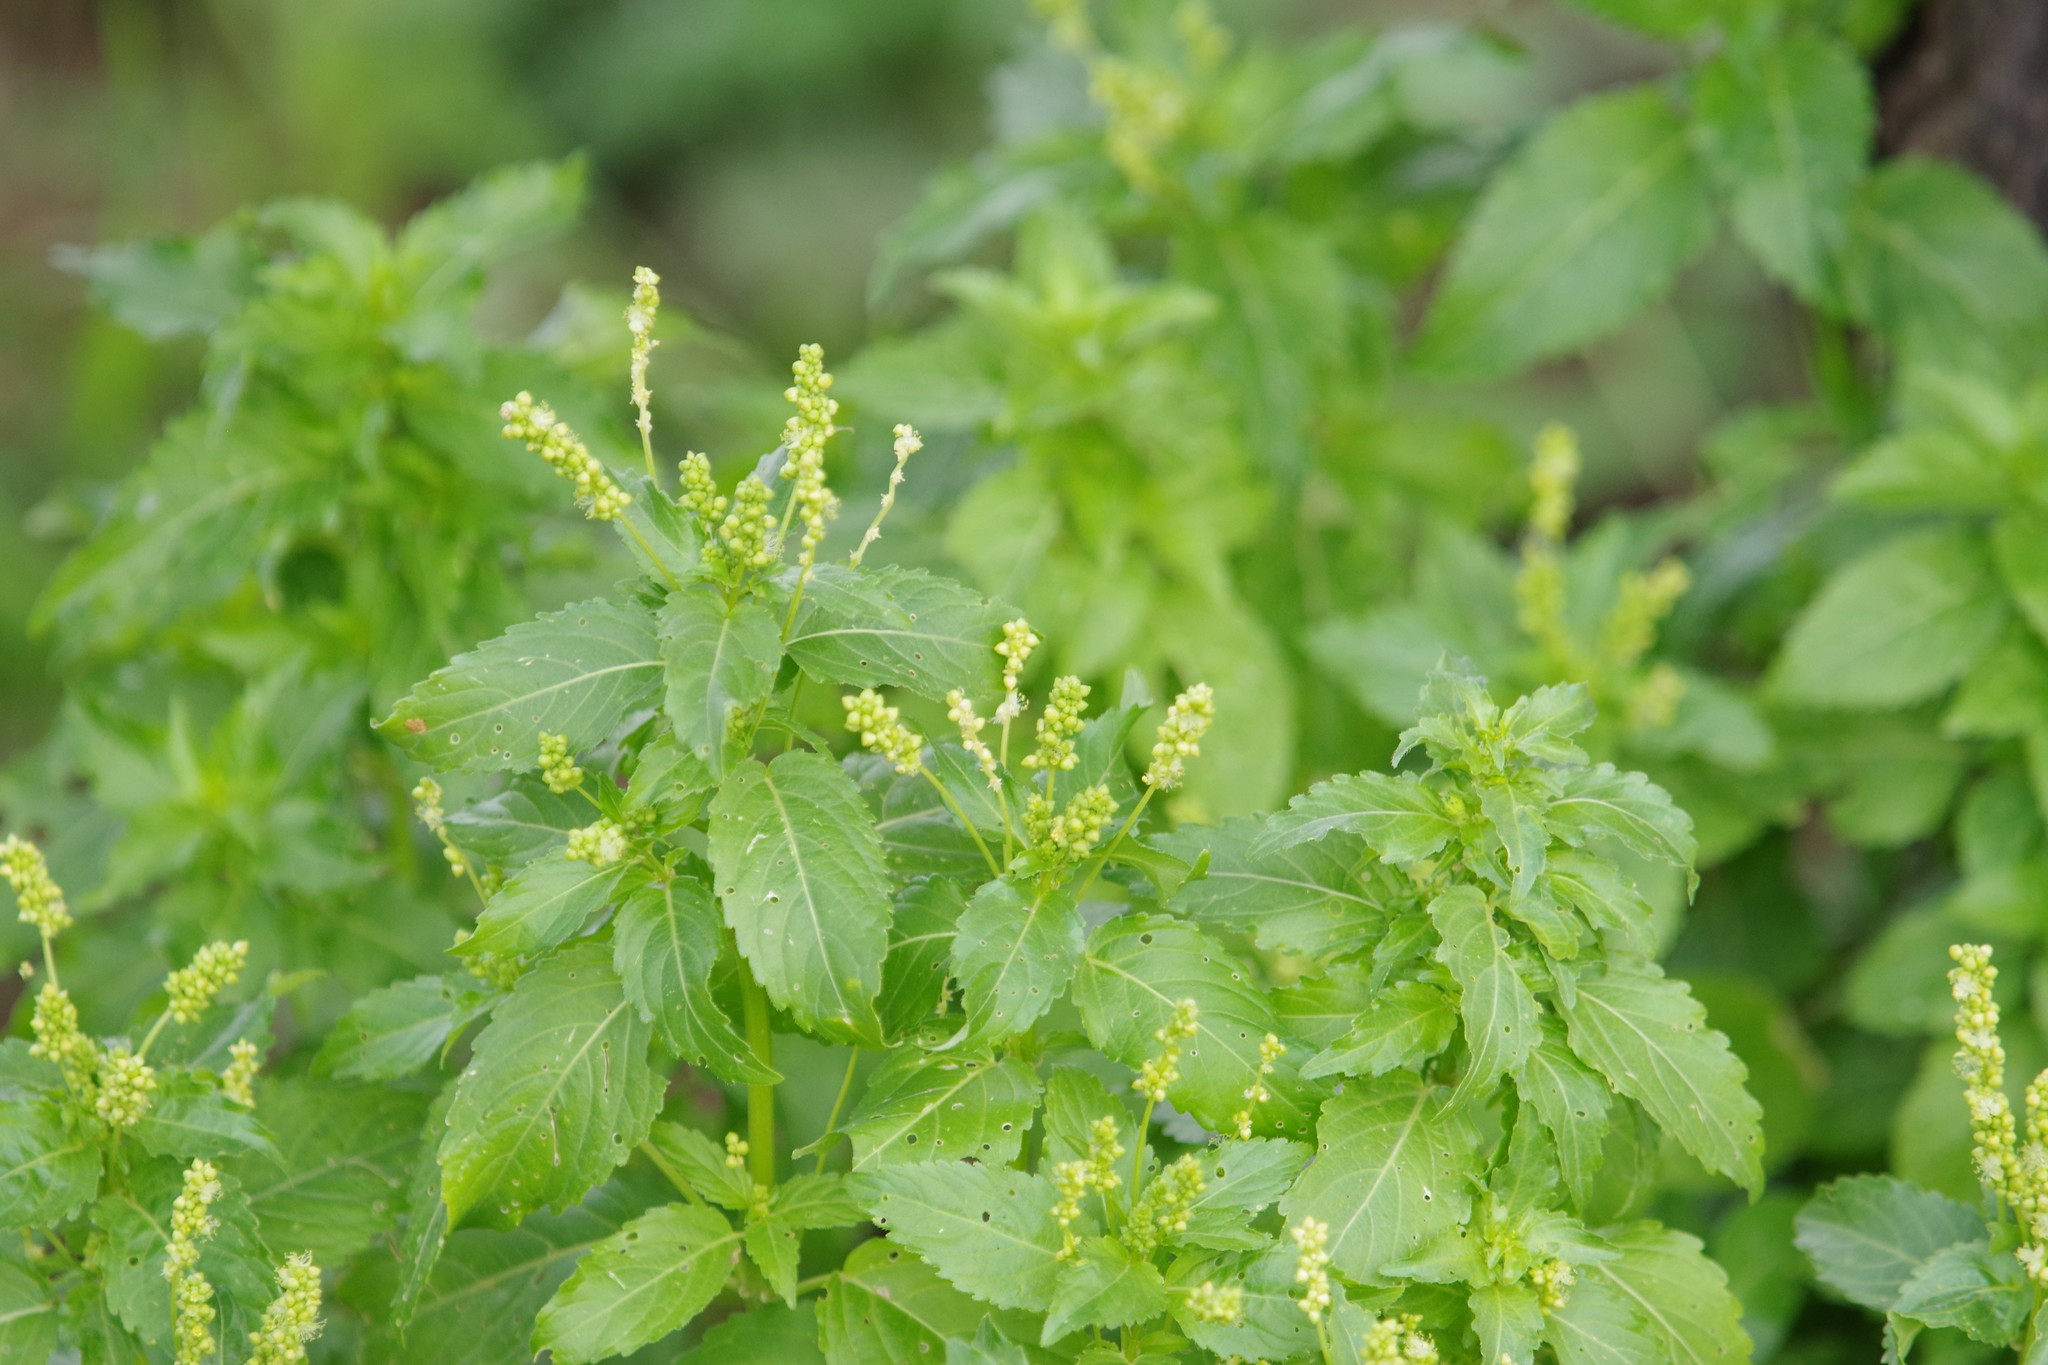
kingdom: Plantae
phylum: Tracheophyta
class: Magnoliopsida
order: Malpighiales
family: Euphorbiaceae
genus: Mercurialis
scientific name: Mercurialis annua
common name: Annual mercury
